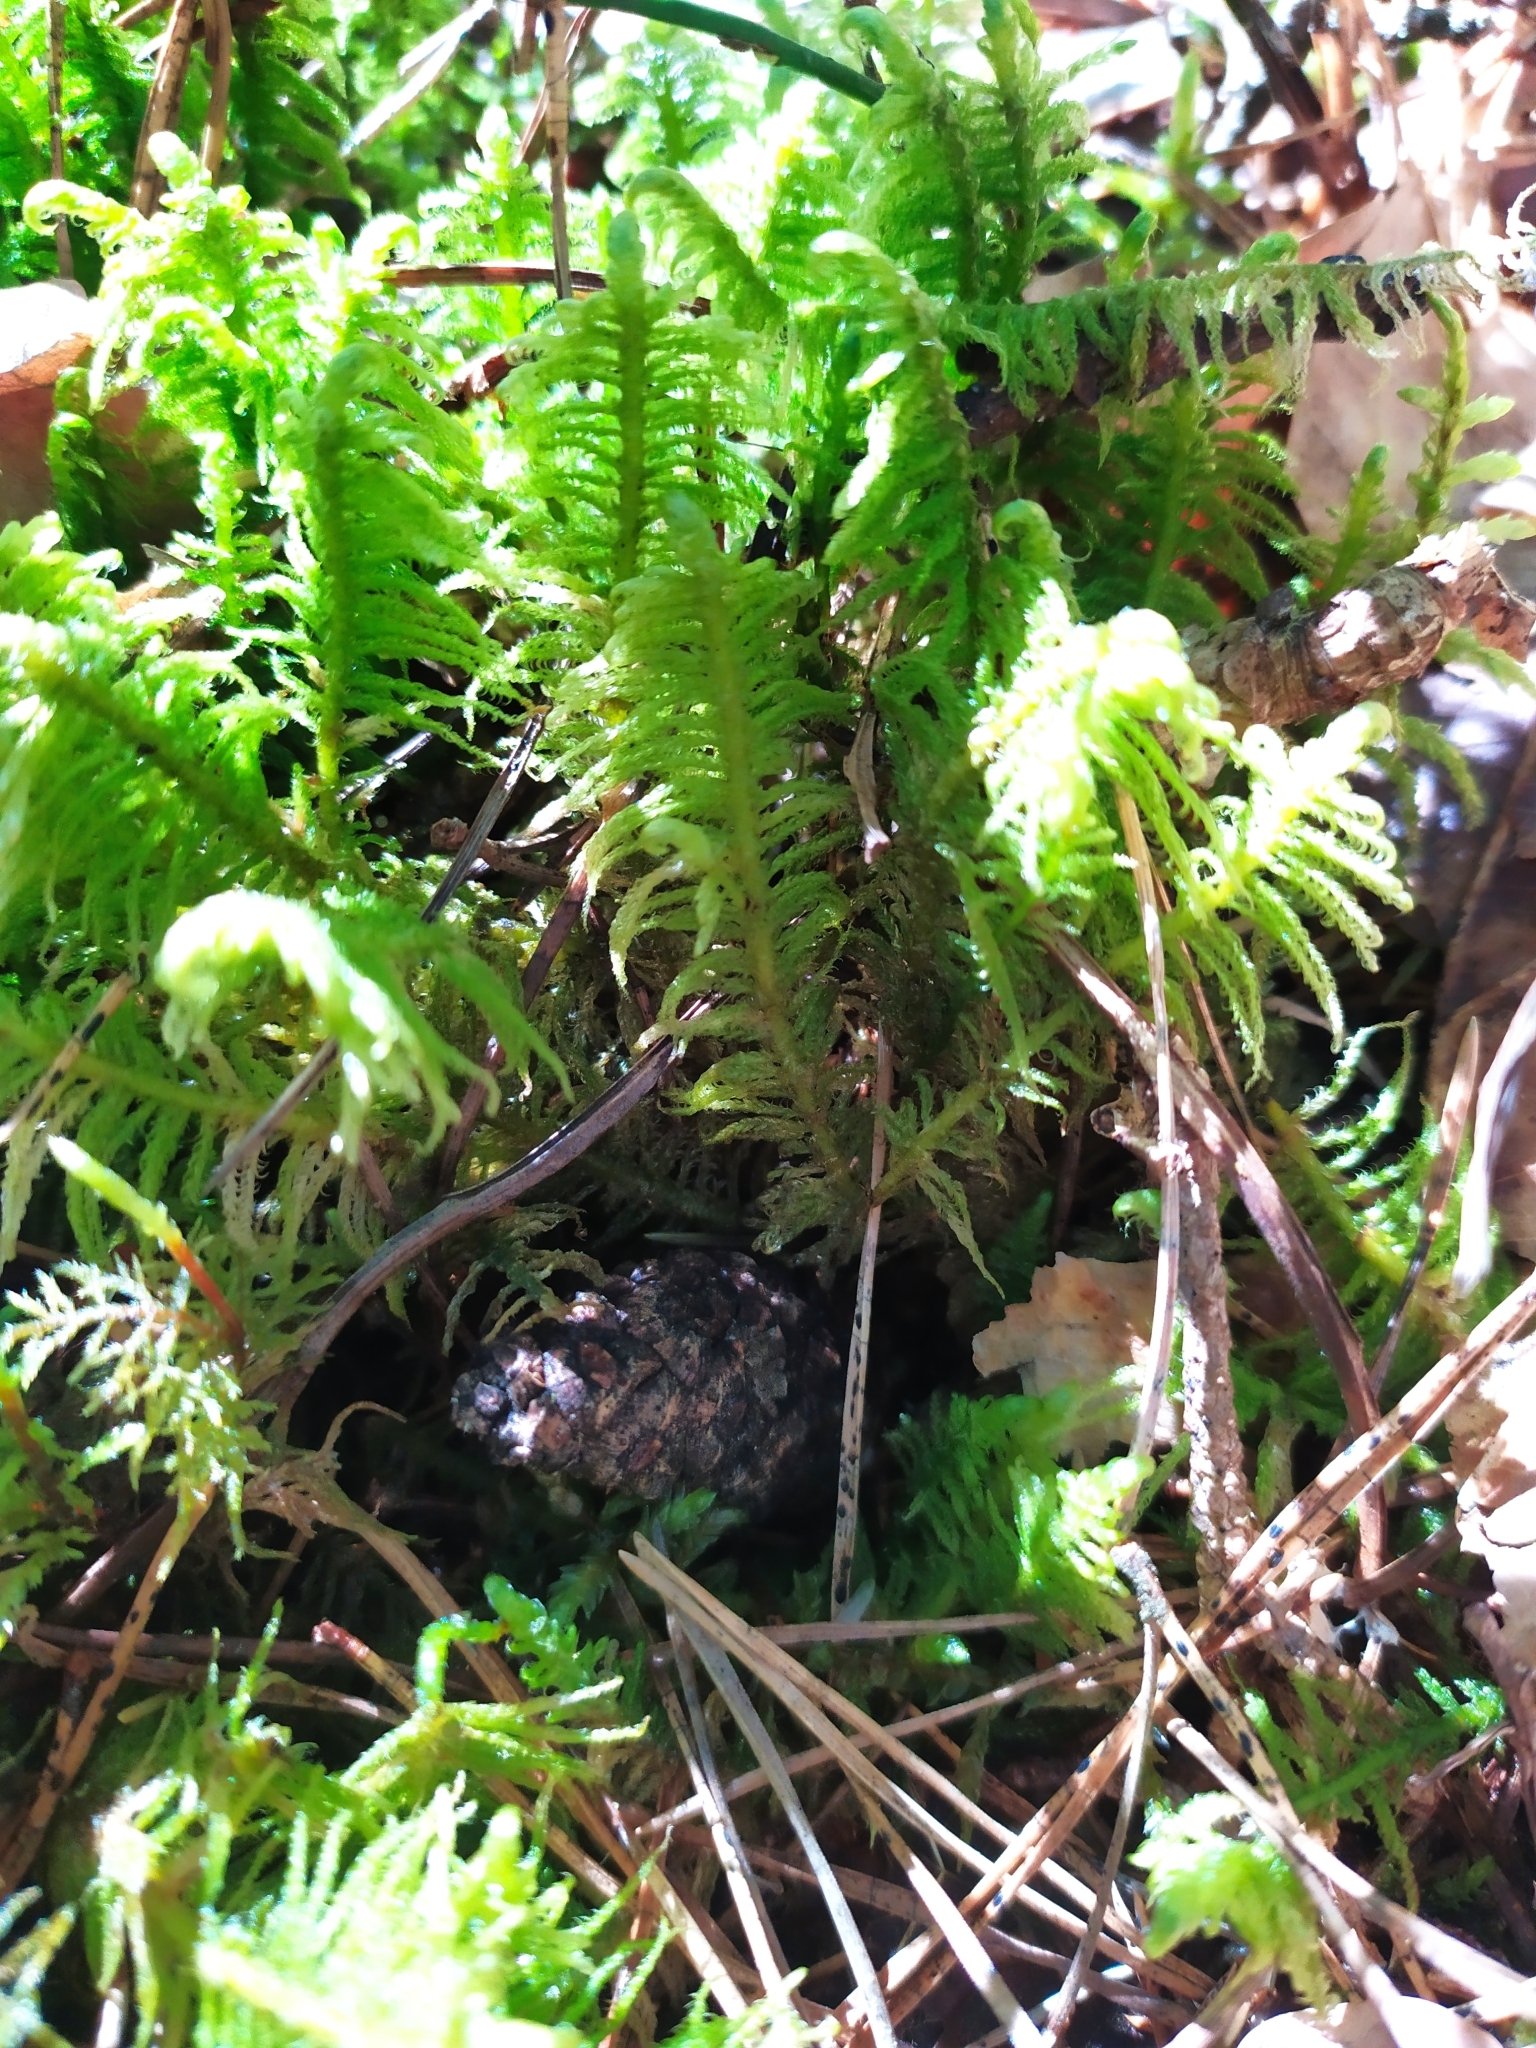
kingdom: Plantae
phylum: Bryophyta
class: Bryopsida
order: Hypnales
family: Pylaisiaceae
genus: Ptilium
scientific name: Ptilium crista-castrensis
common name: Knight's plume moss
